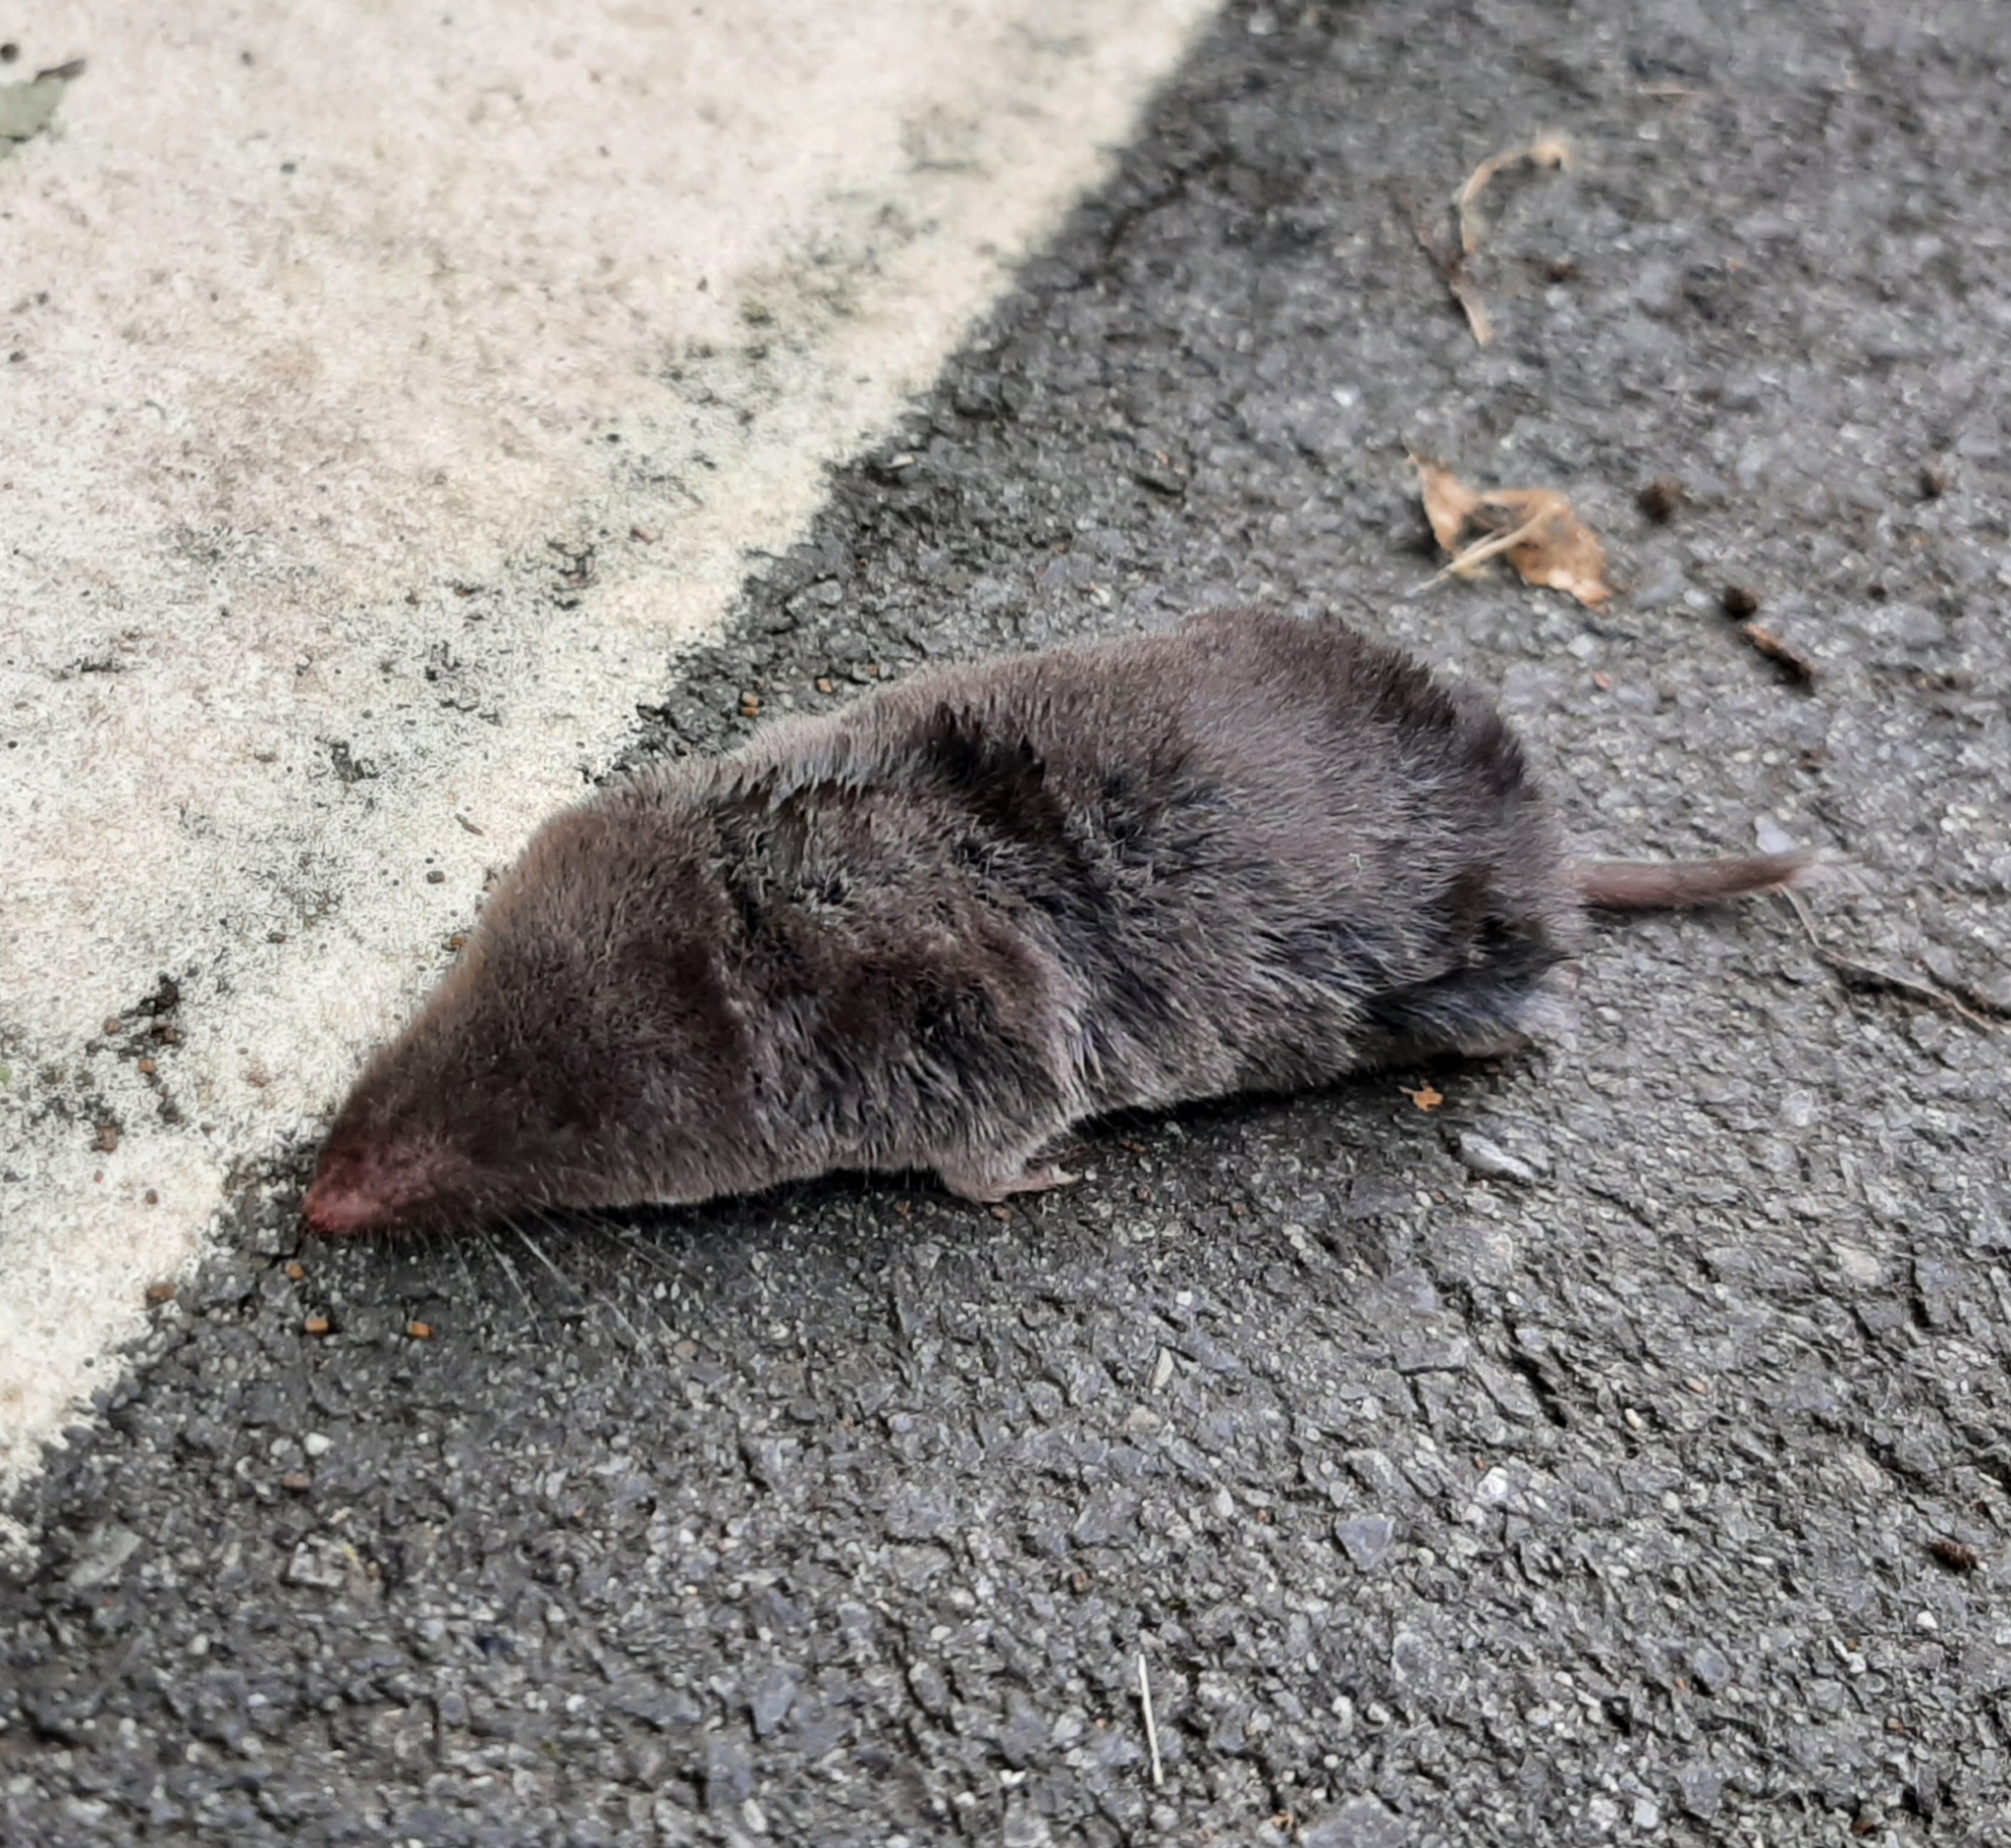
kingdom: Animalia
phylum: Chordata
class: Mammalia
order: Soricomorpha
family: Soricidae
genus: Blarina
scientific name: Blarina brevicauda
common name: Northern short-tailed shrew
